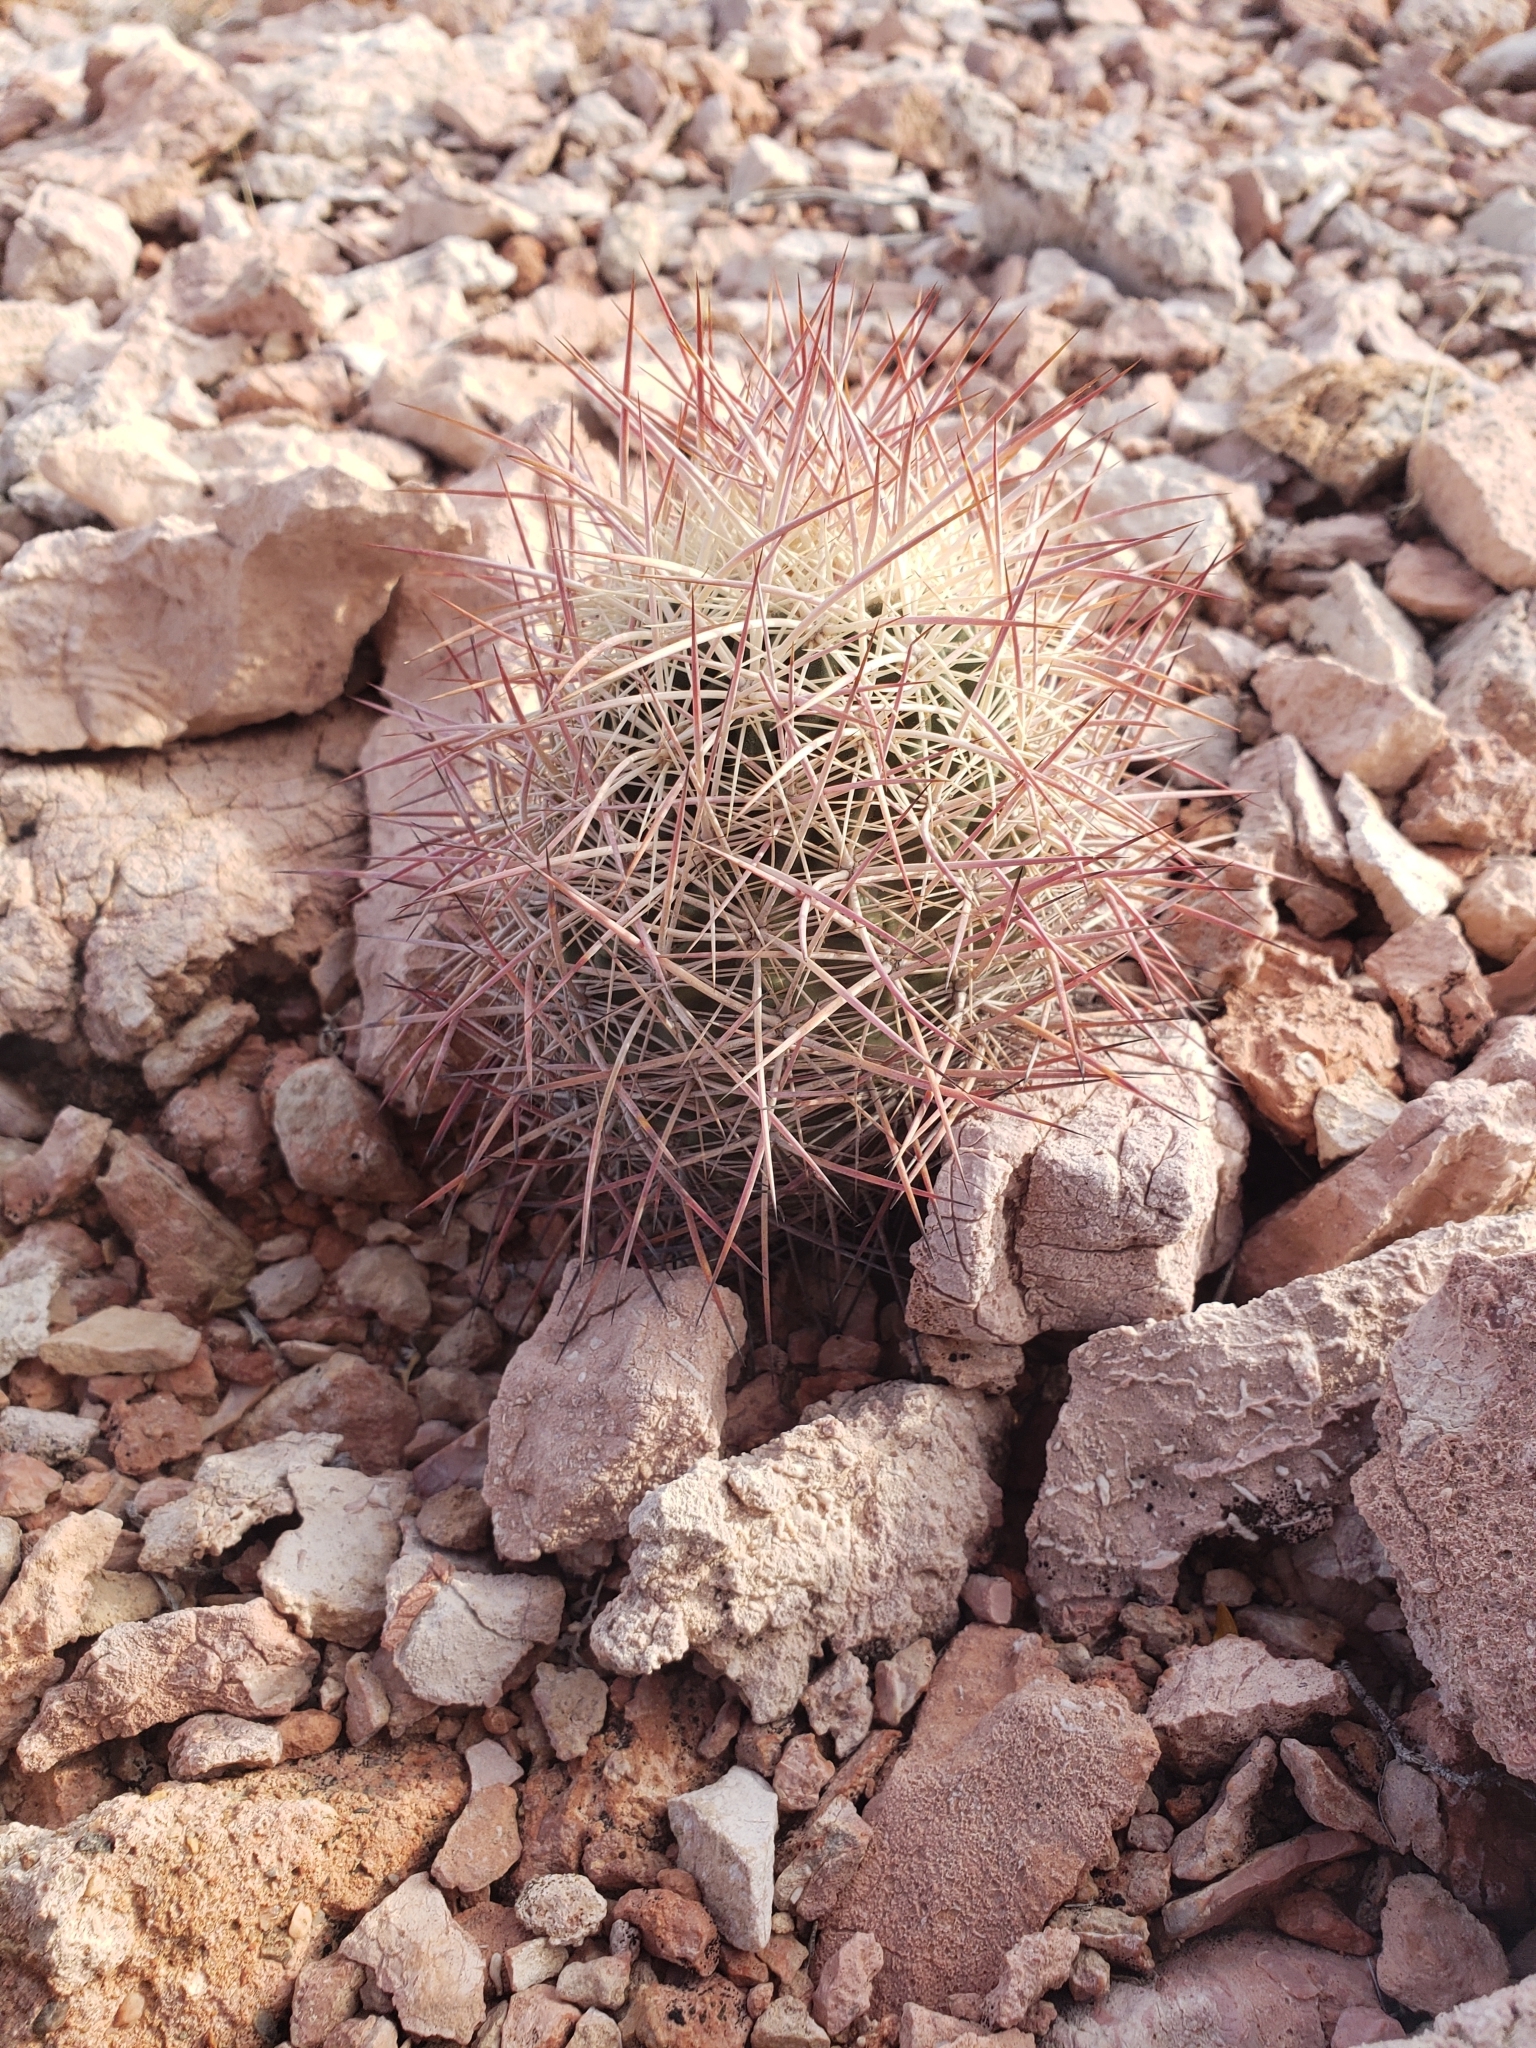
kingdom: Plantae
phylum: Tracheophyta
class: Magnoliopsida
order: Caryophyllales
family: Cactaceae
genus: Sclerocactus
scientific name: Sclerocactus johnsonii
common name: Eight-spine fishhook cactus
